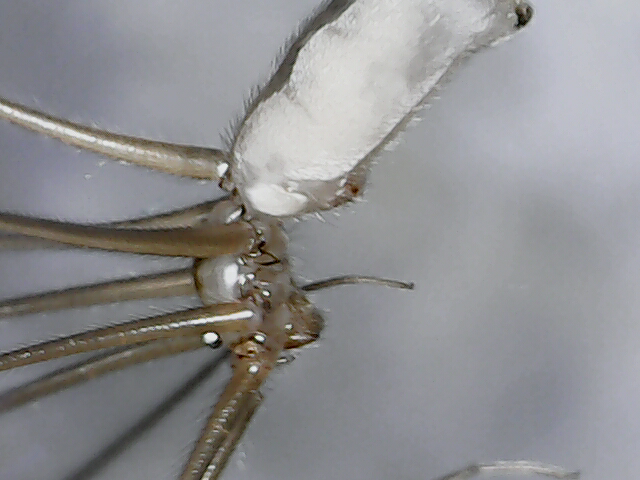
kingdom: Animalia
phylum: Arthropoda
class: Arachnida
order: Araneae
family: Pholcidae
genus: Pholcus
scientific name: Pholcus phalangioides
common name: Longbodied cellar spider
